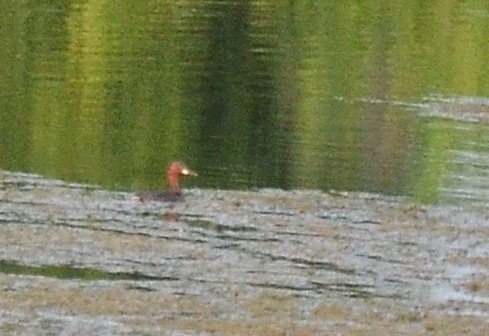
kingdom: Animalia
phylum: Chordata
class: Aves
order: Podicipediformes
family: Podicipedidae
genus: Tachybaptus
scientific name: Tachybaptus ruficollis
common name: Little grebe
